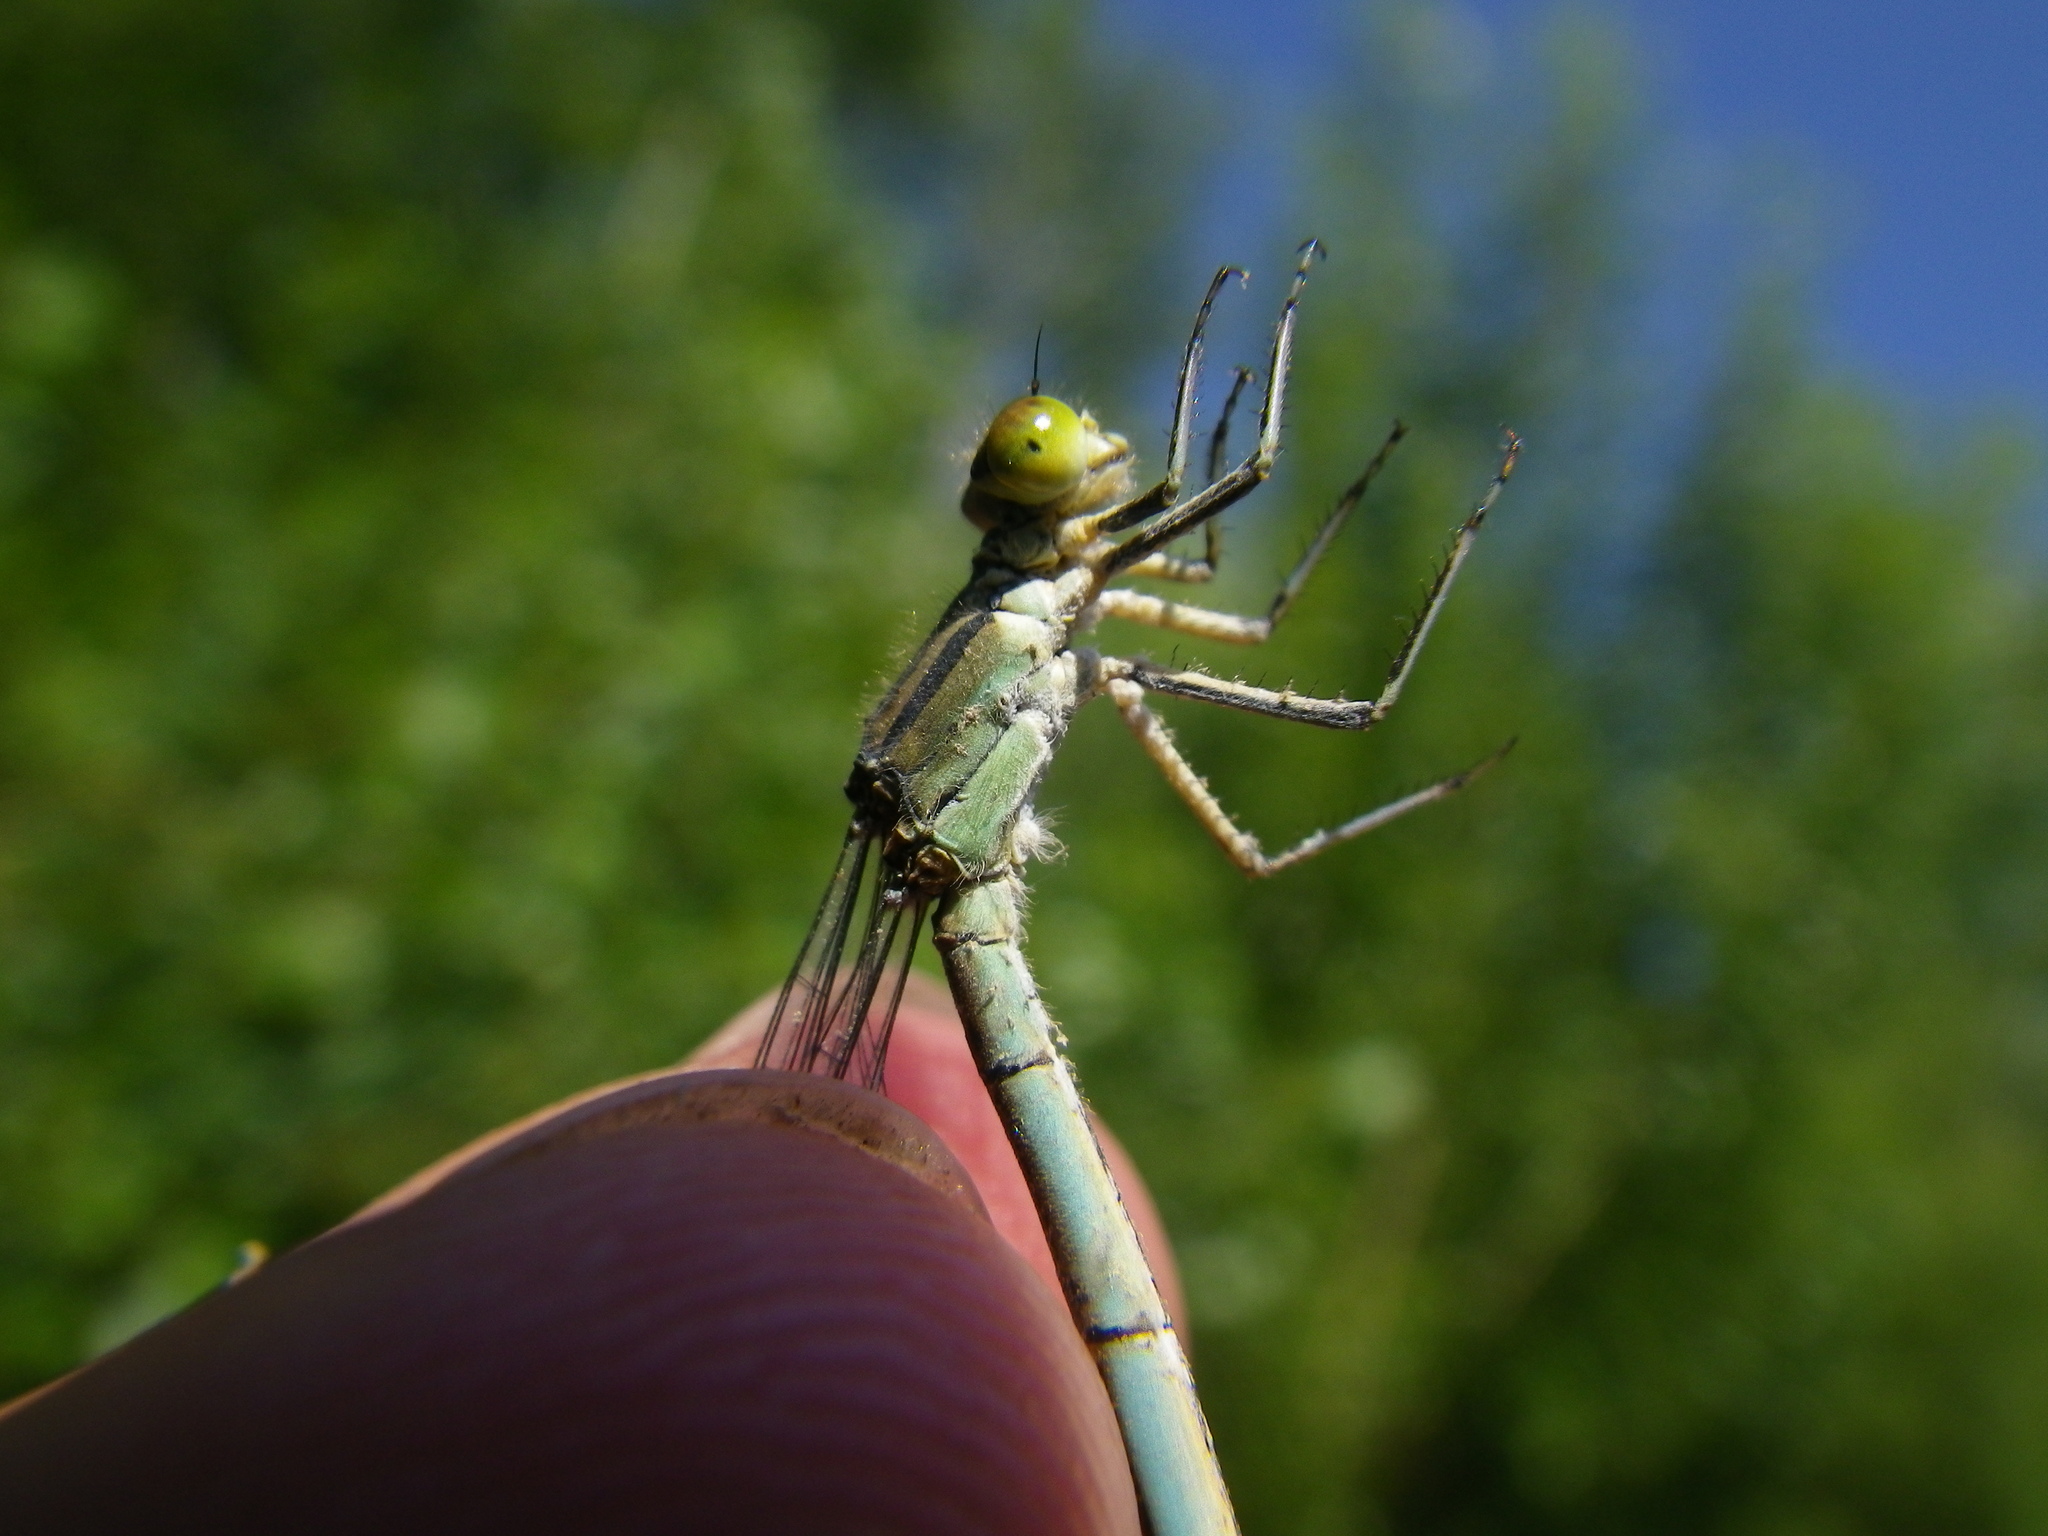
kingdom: Animalia
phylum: Arthropoda
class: Insecta
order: Odonata
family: Coenagrionidae
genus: Erythromma
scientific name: Erythromma lindenii
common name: Blue-eye
